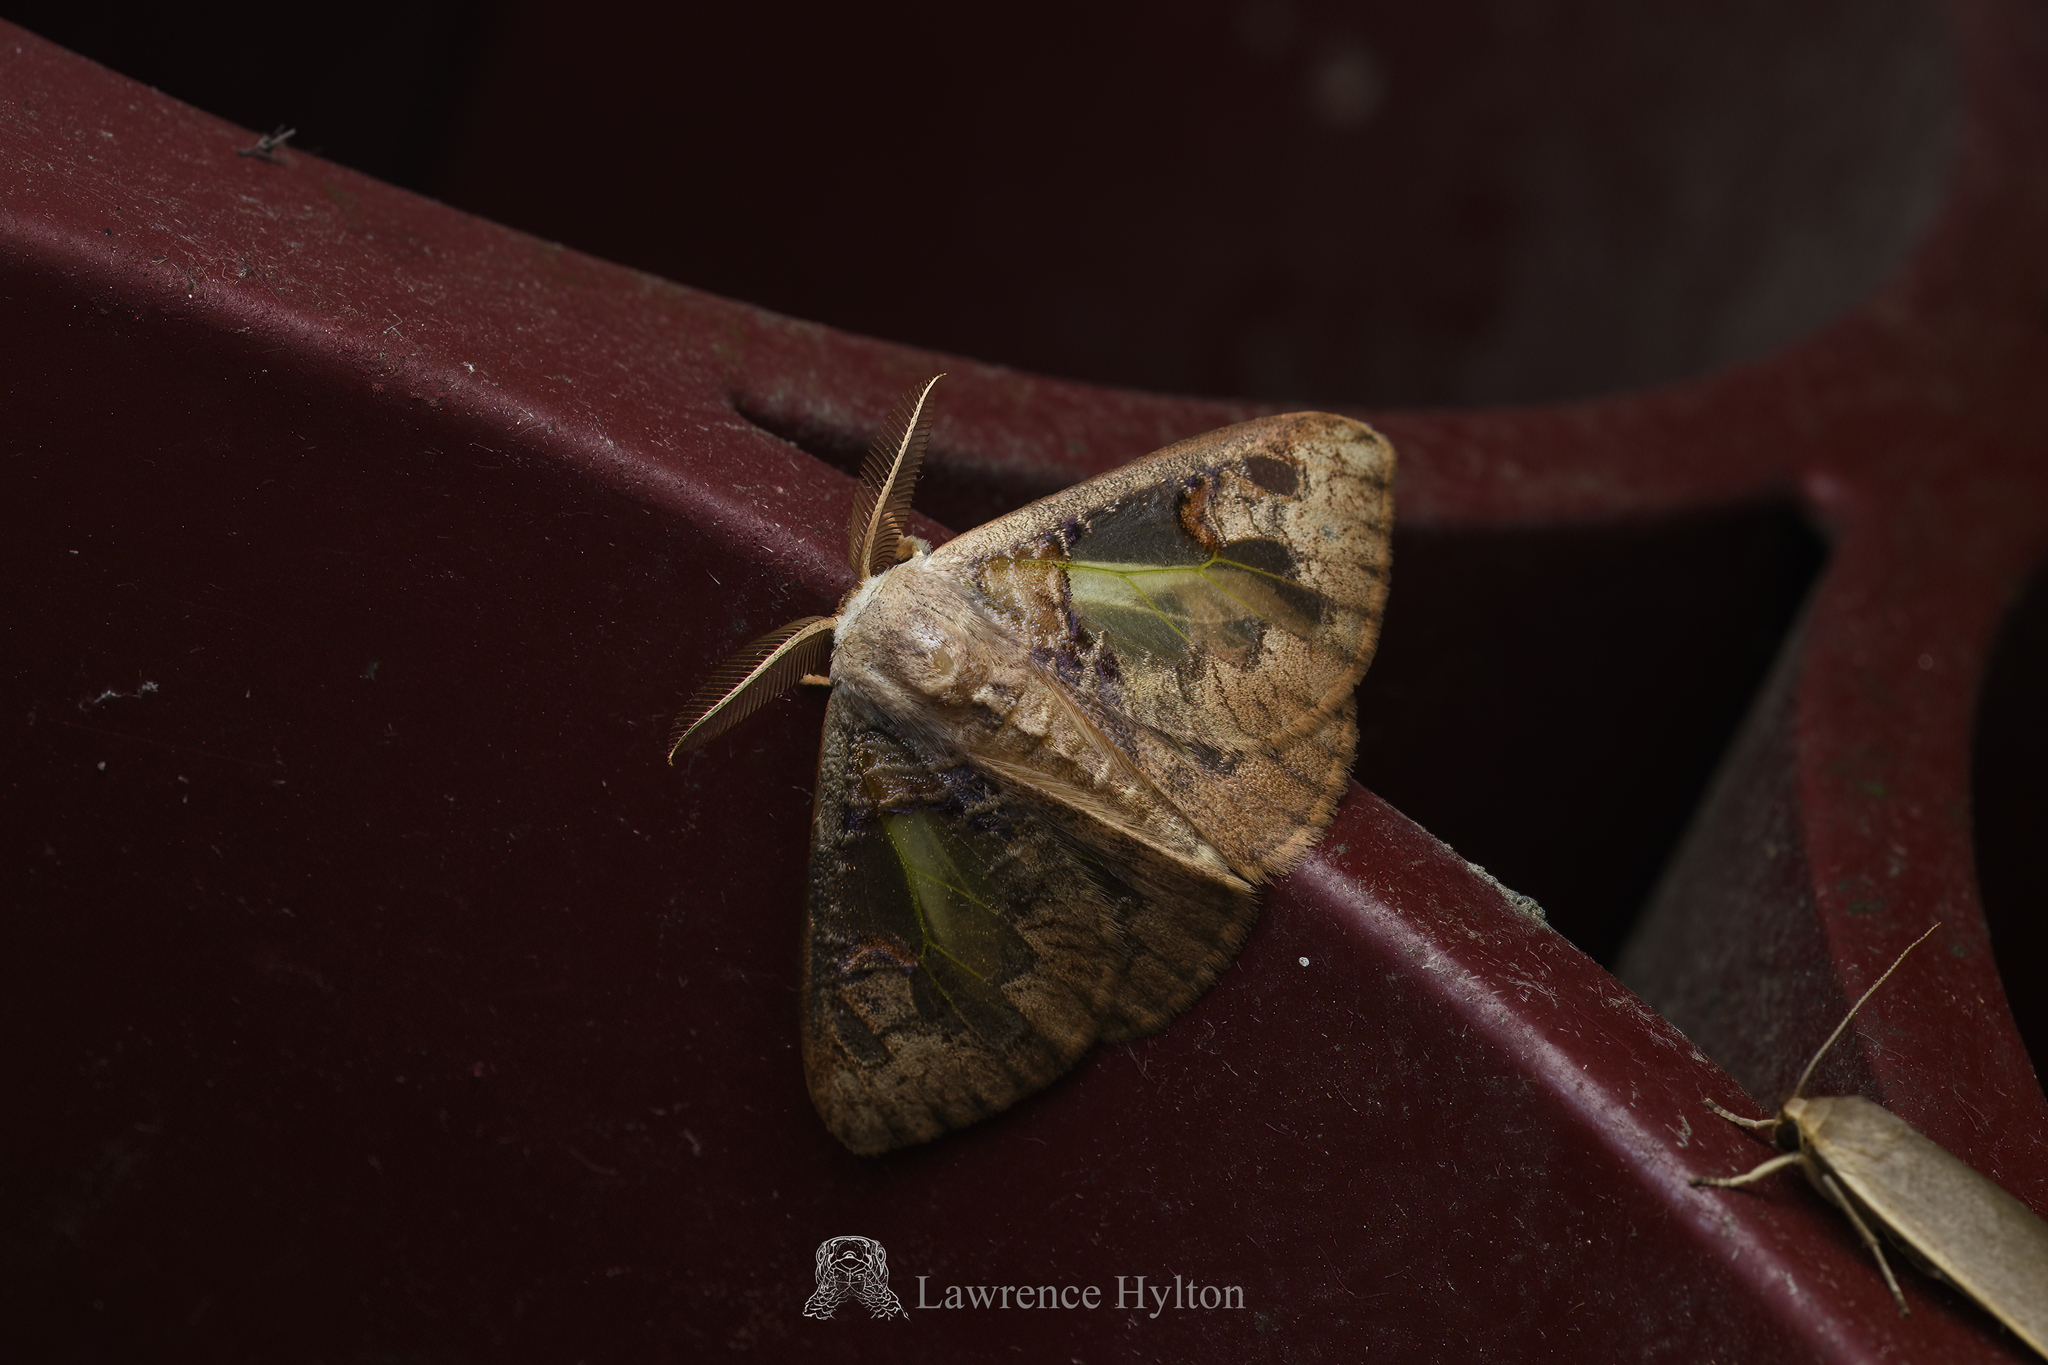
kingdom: Animalia
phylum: Arthropoda
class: Insecta
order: Lepidoptera
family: Erebidae
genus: Carriola
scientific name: Carriola seminsula
